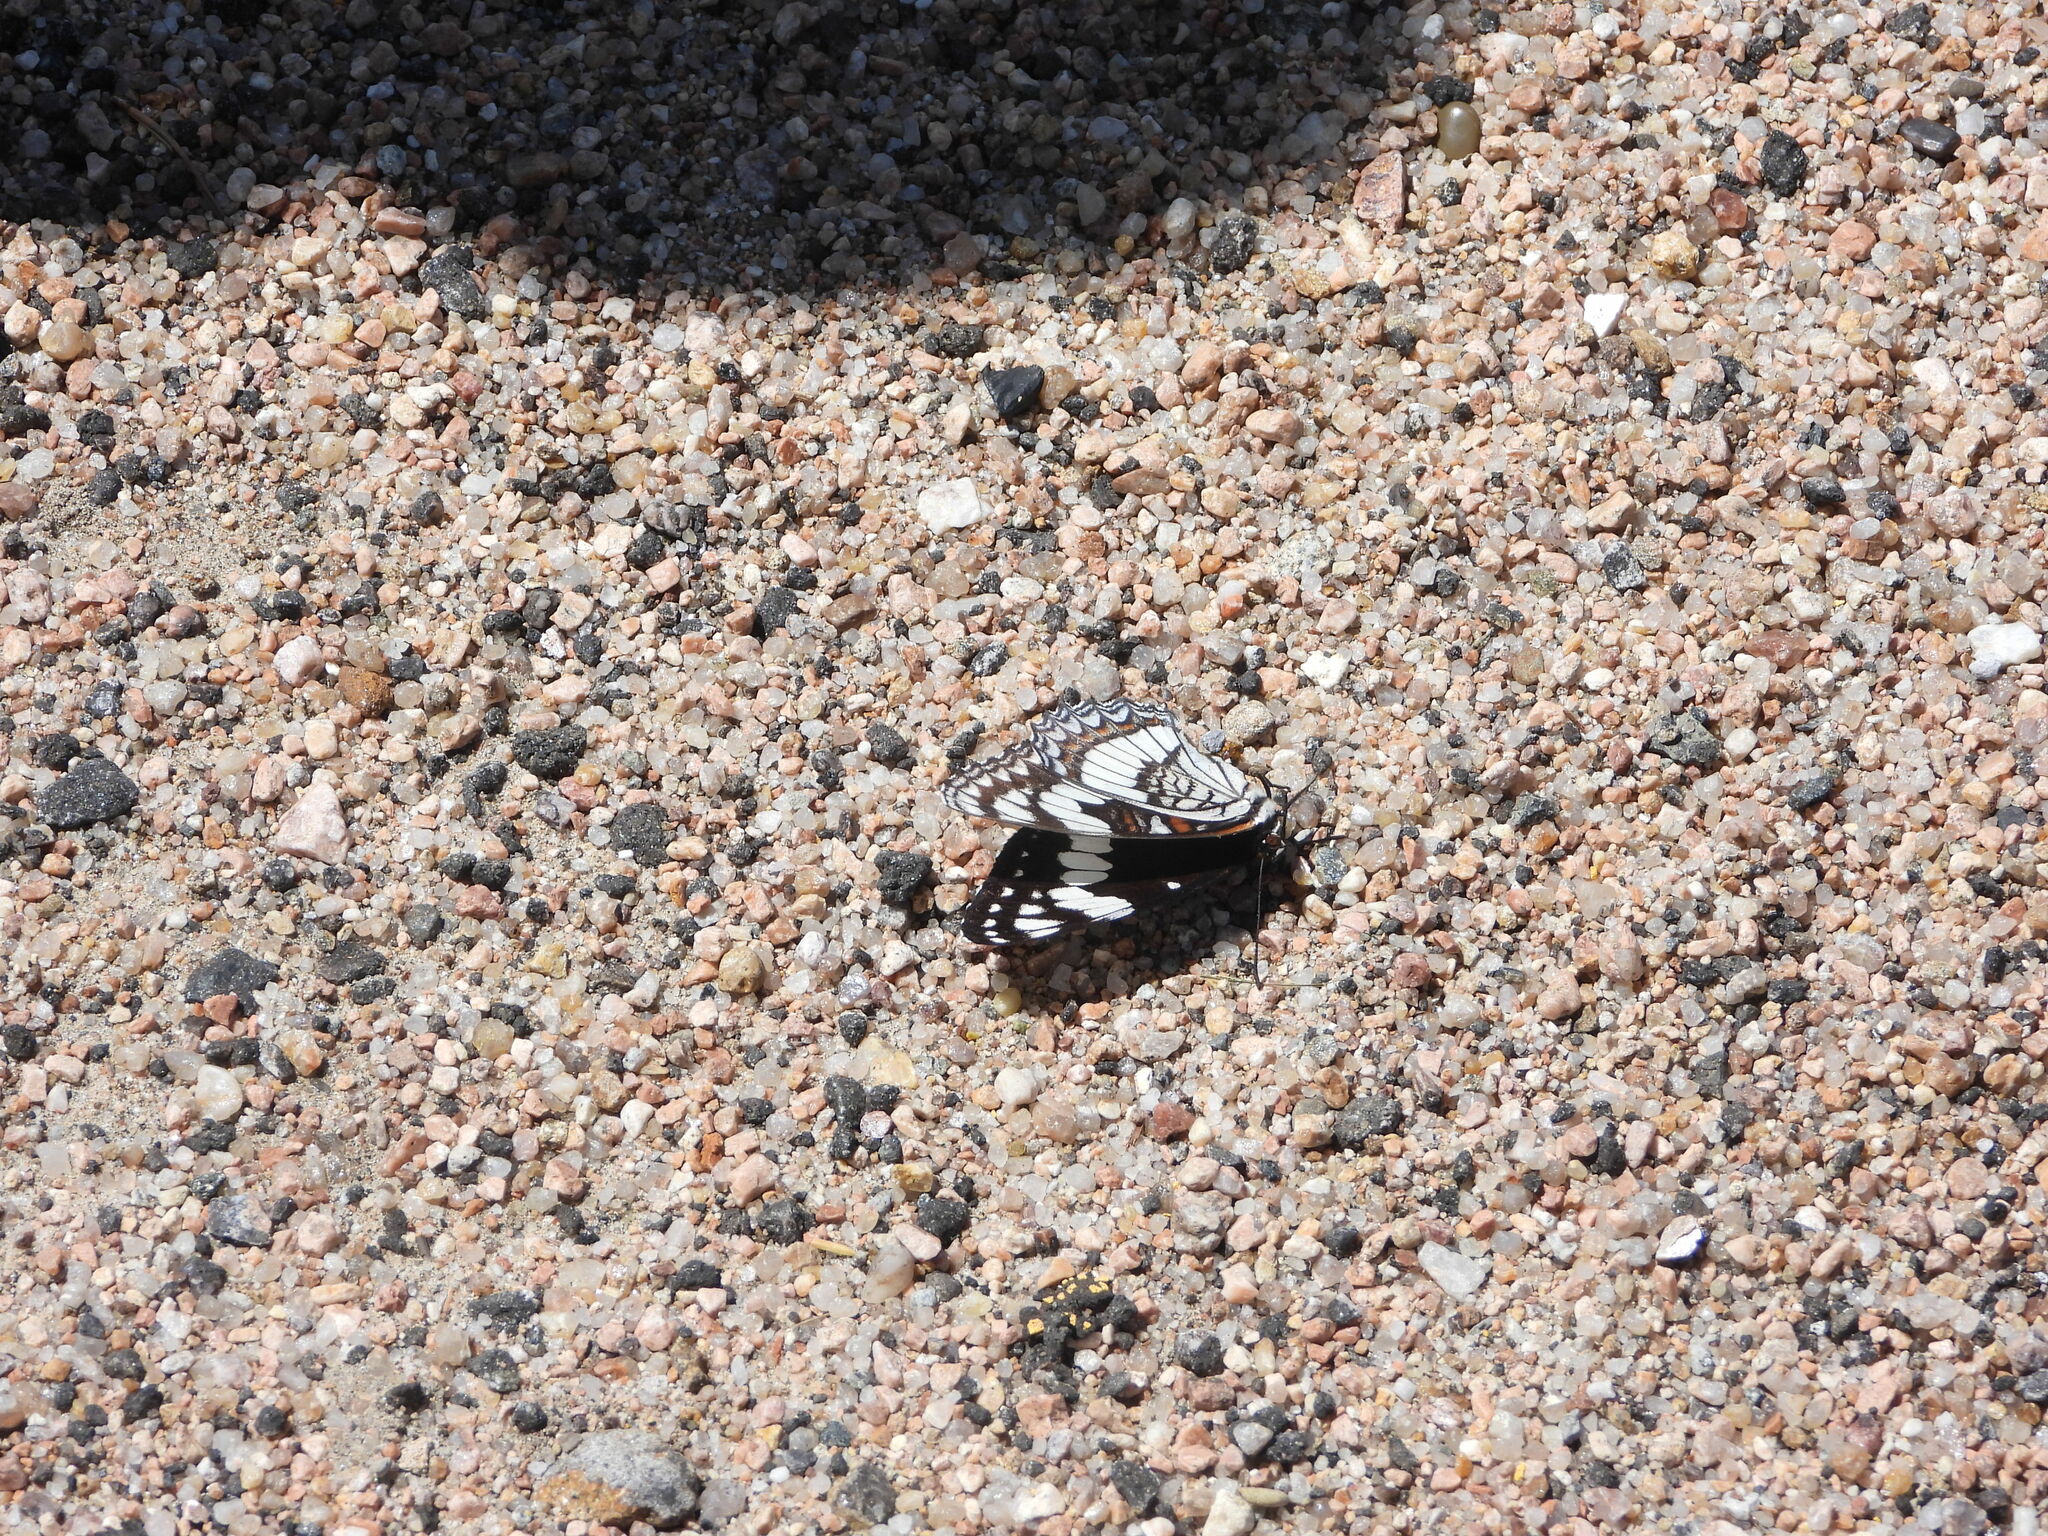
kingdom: Animalia
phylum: Arthropoda
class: Insecta
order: Lepidoptera
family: Nymphalidae
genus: Limenitis
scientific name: Limenitis weidemeyerii
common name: Weidemeyer's admiral
